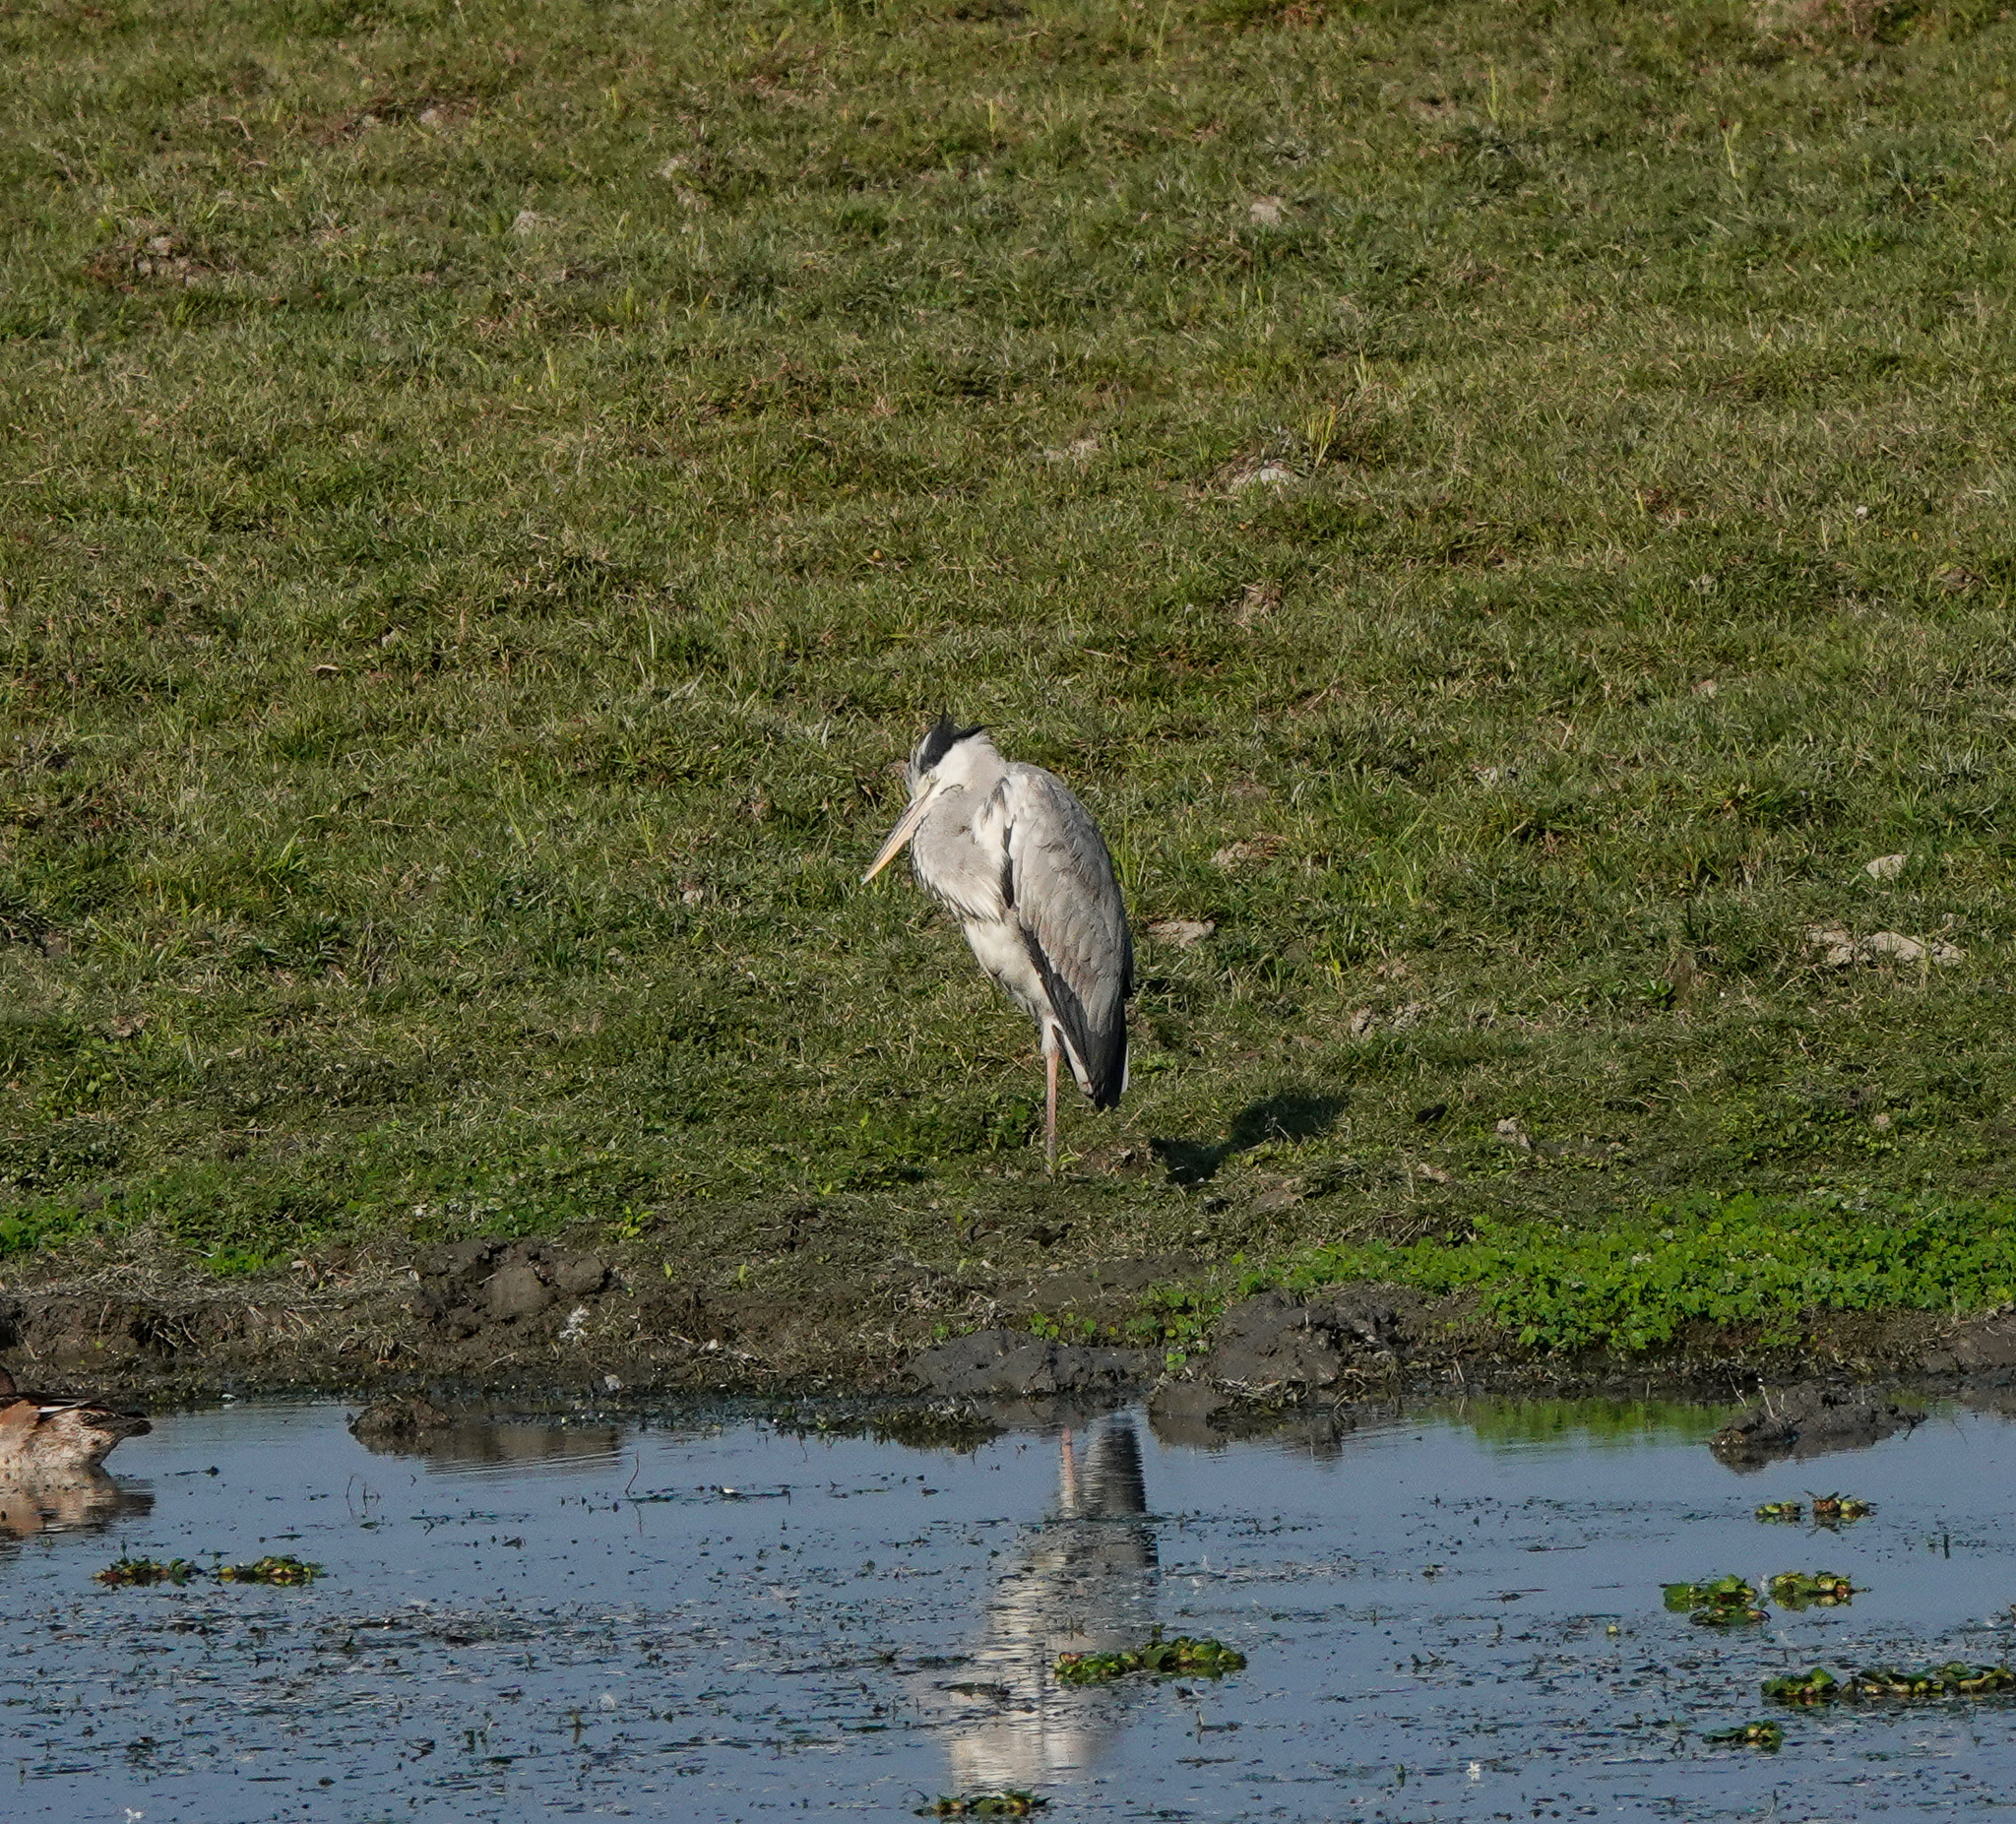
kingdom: Animalia
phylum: Chordata
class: Aves
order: Pelecaniformes
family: Ardeidae
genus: Ardea
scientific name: Ardea cinerea
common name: Grey heron
